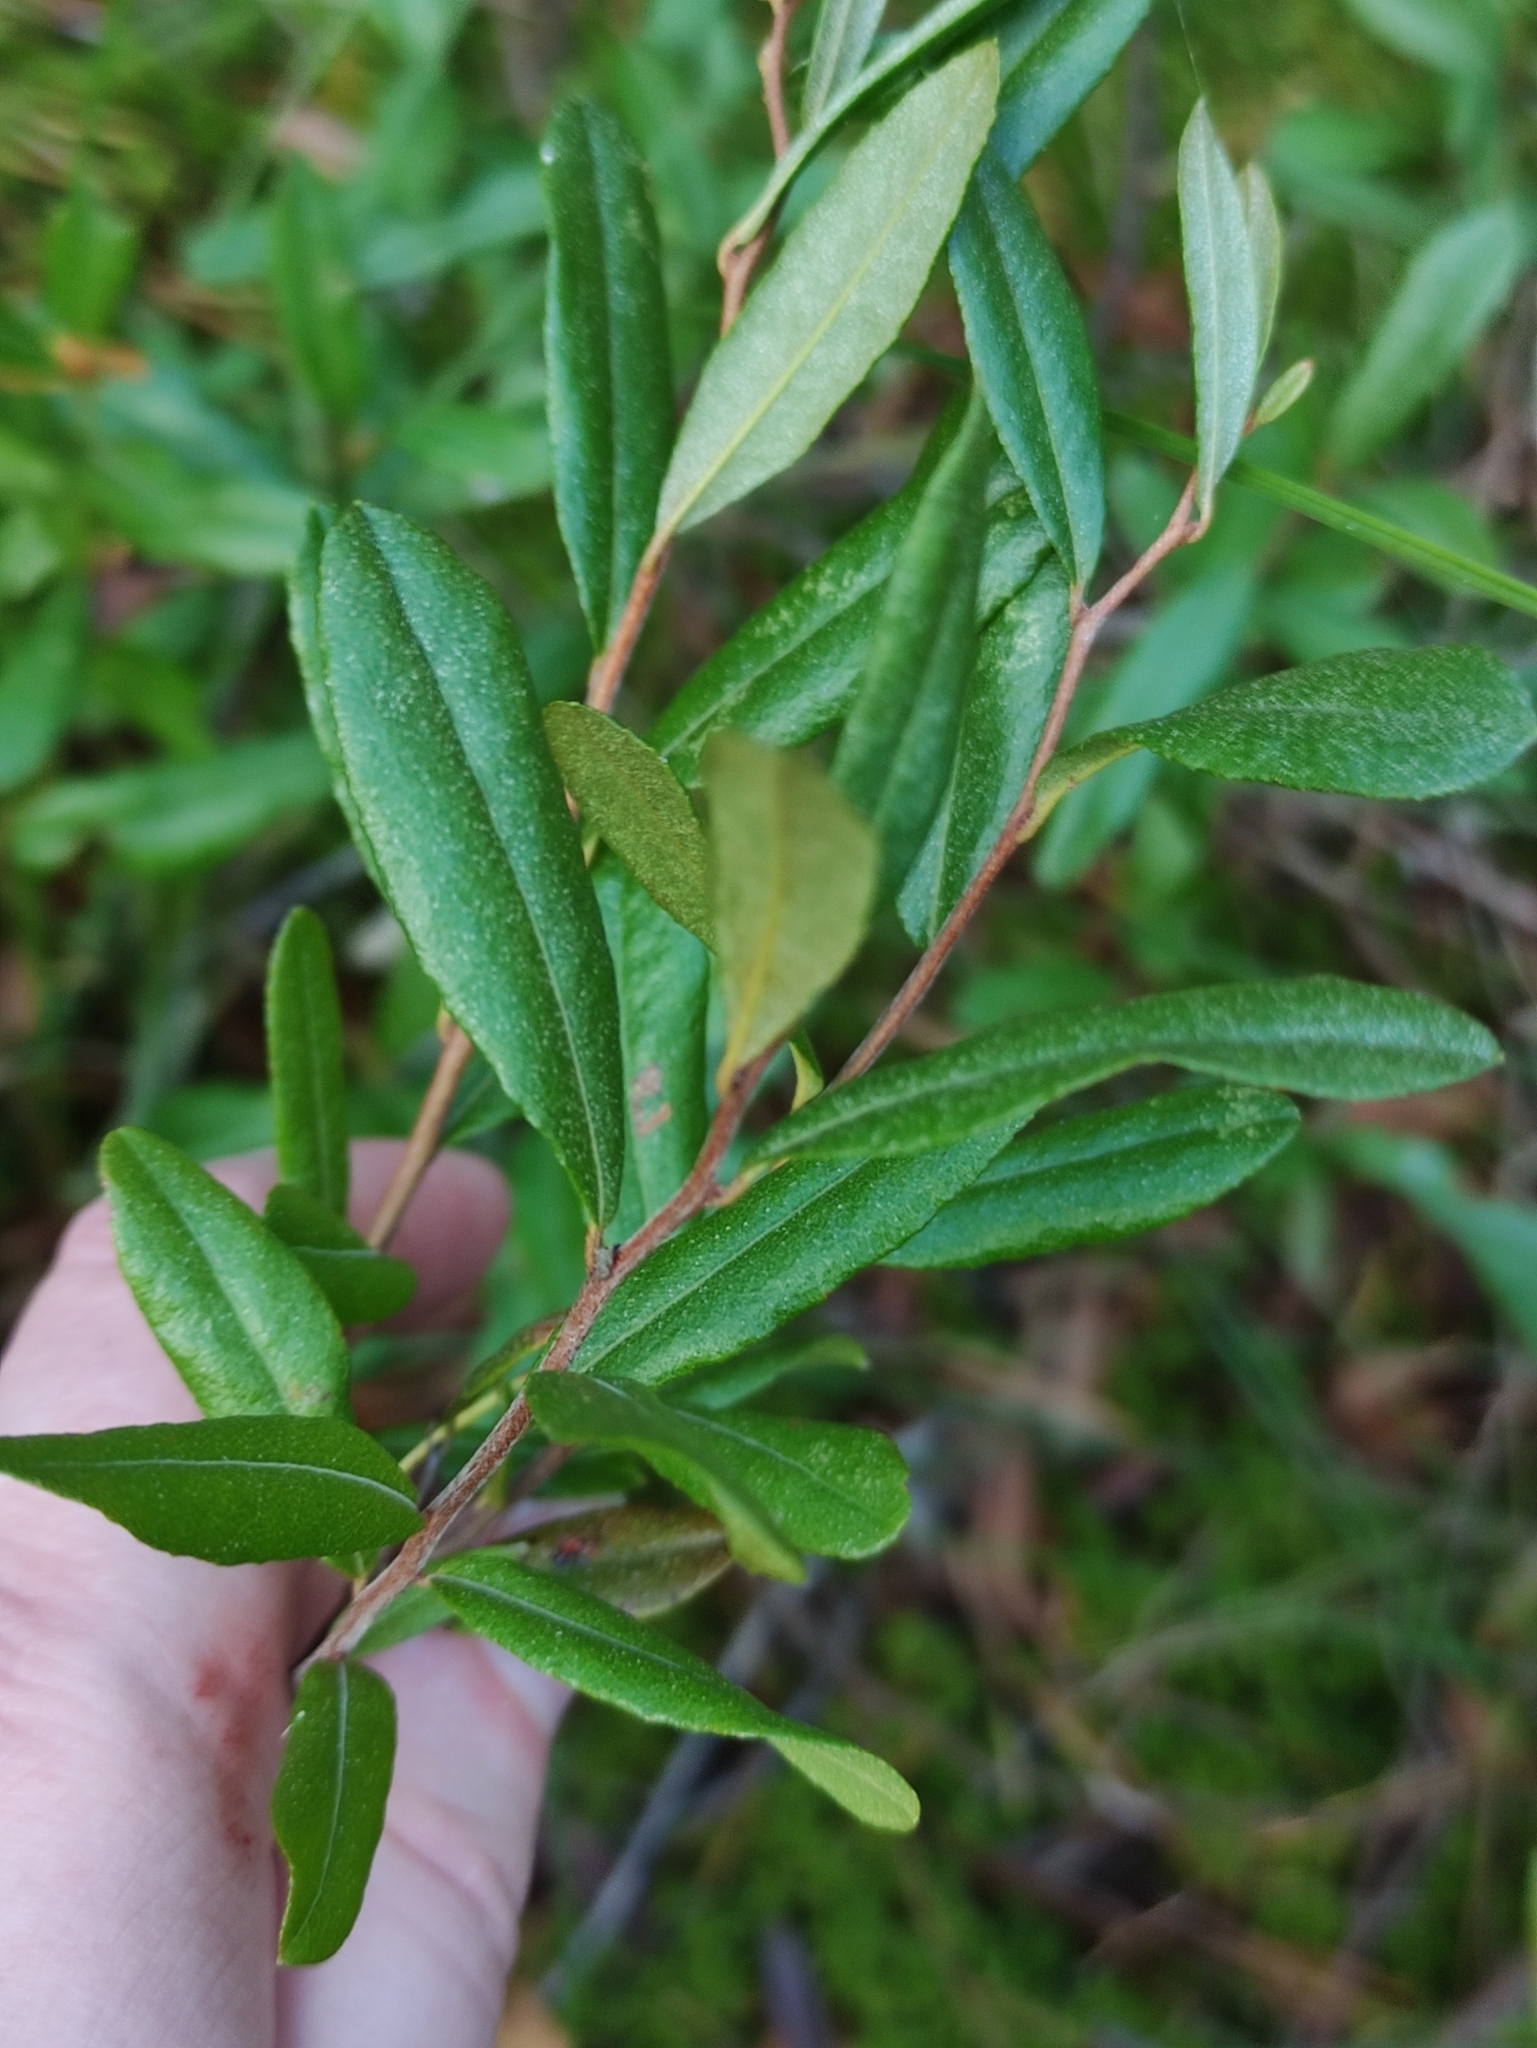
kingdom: Plantae
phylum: Tracheophyta
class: Magnoliopsida
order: Ericales
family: Ericaceae
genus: Chamaedaphne
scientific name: Chamaedaphne calyculata
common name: Leatherleaf
